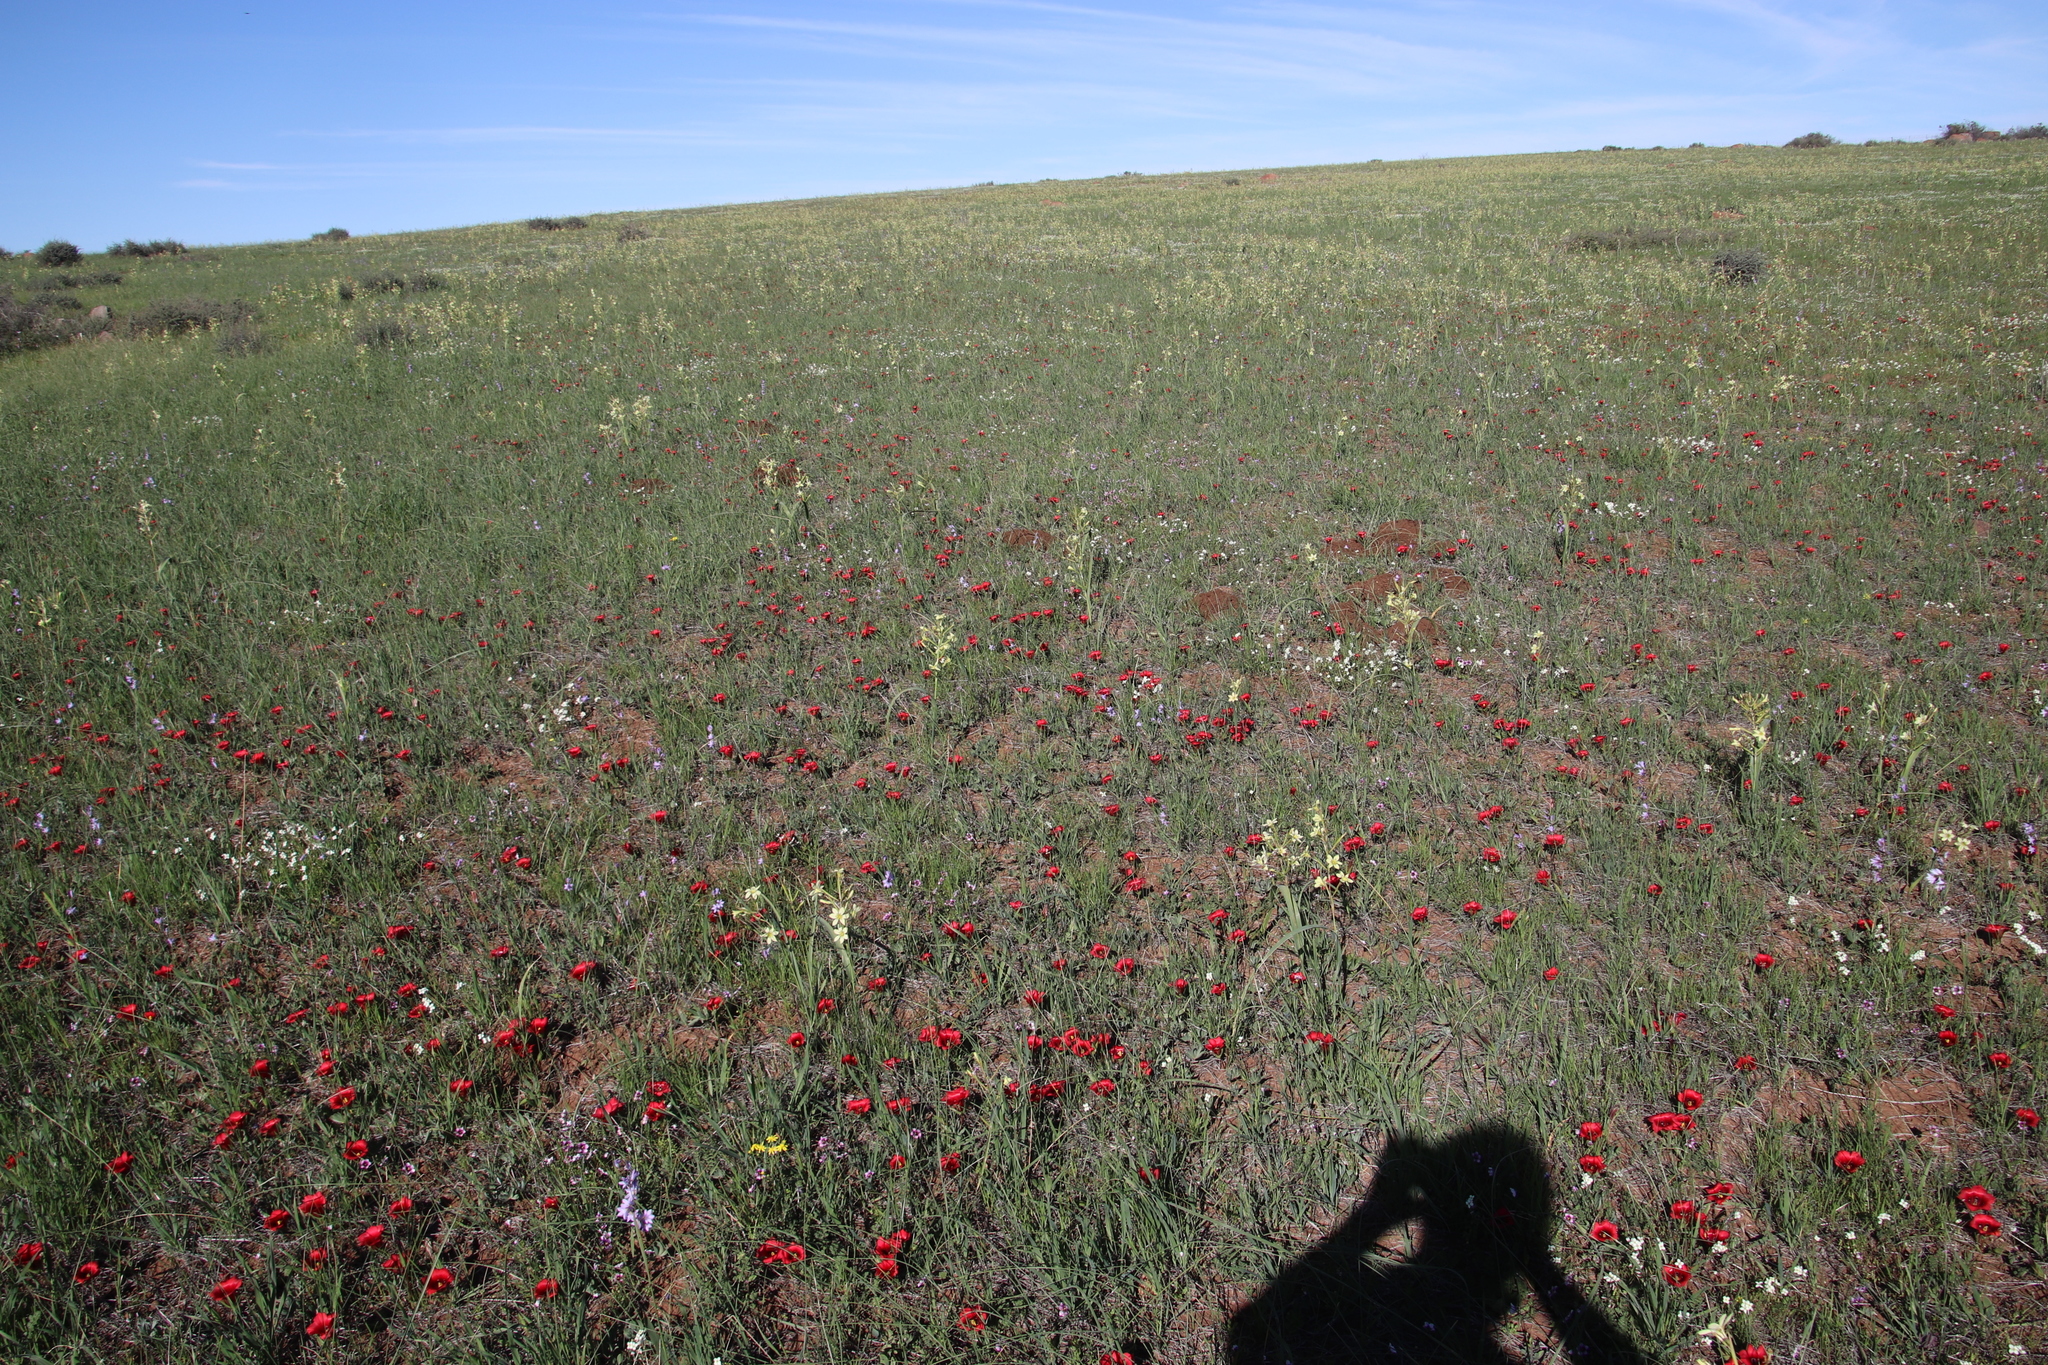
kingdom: Plantae
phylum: Tracheophyta
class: Liliopsida
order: Asparagales
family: Iridaceae
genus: Romulea
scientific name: Romulea monadelpha
